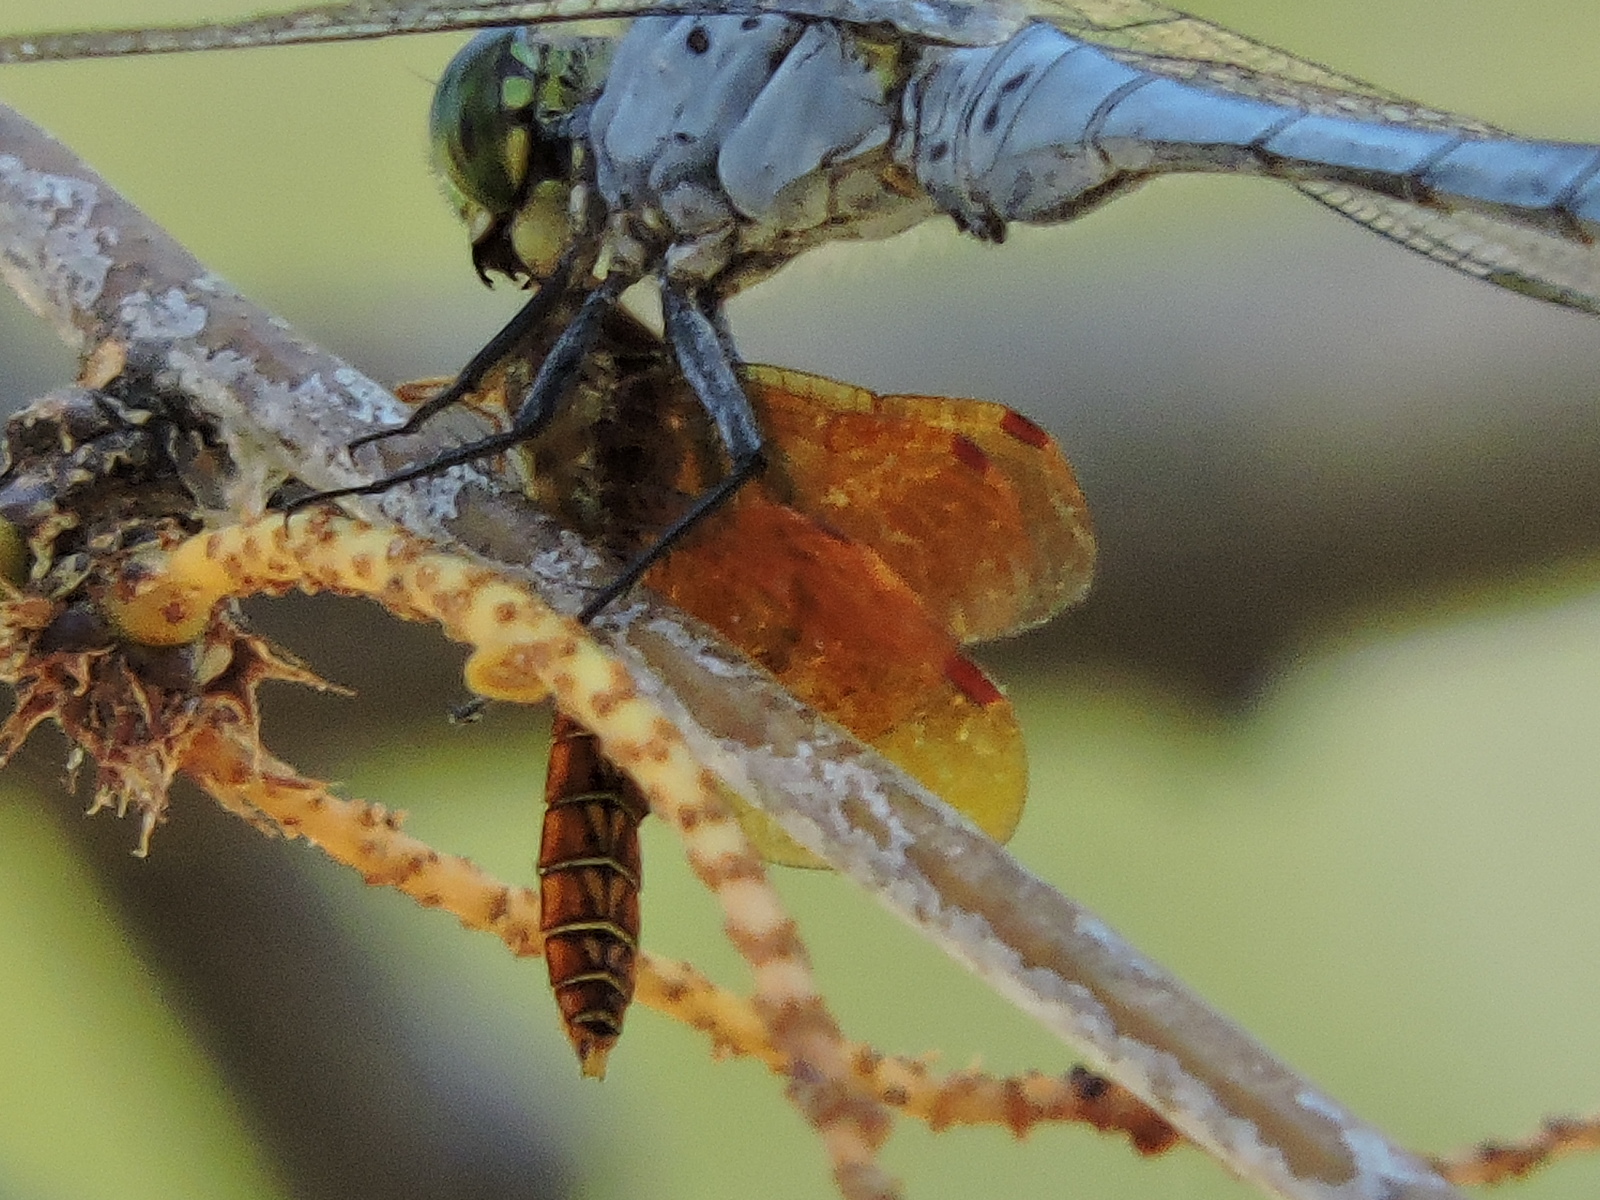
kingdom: Animalia
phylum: Arthropoda
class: Insecta
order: Odonata
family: Libellulidae
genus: Perithemis
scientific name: Perithemis tenera
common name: Eastern amberwing
